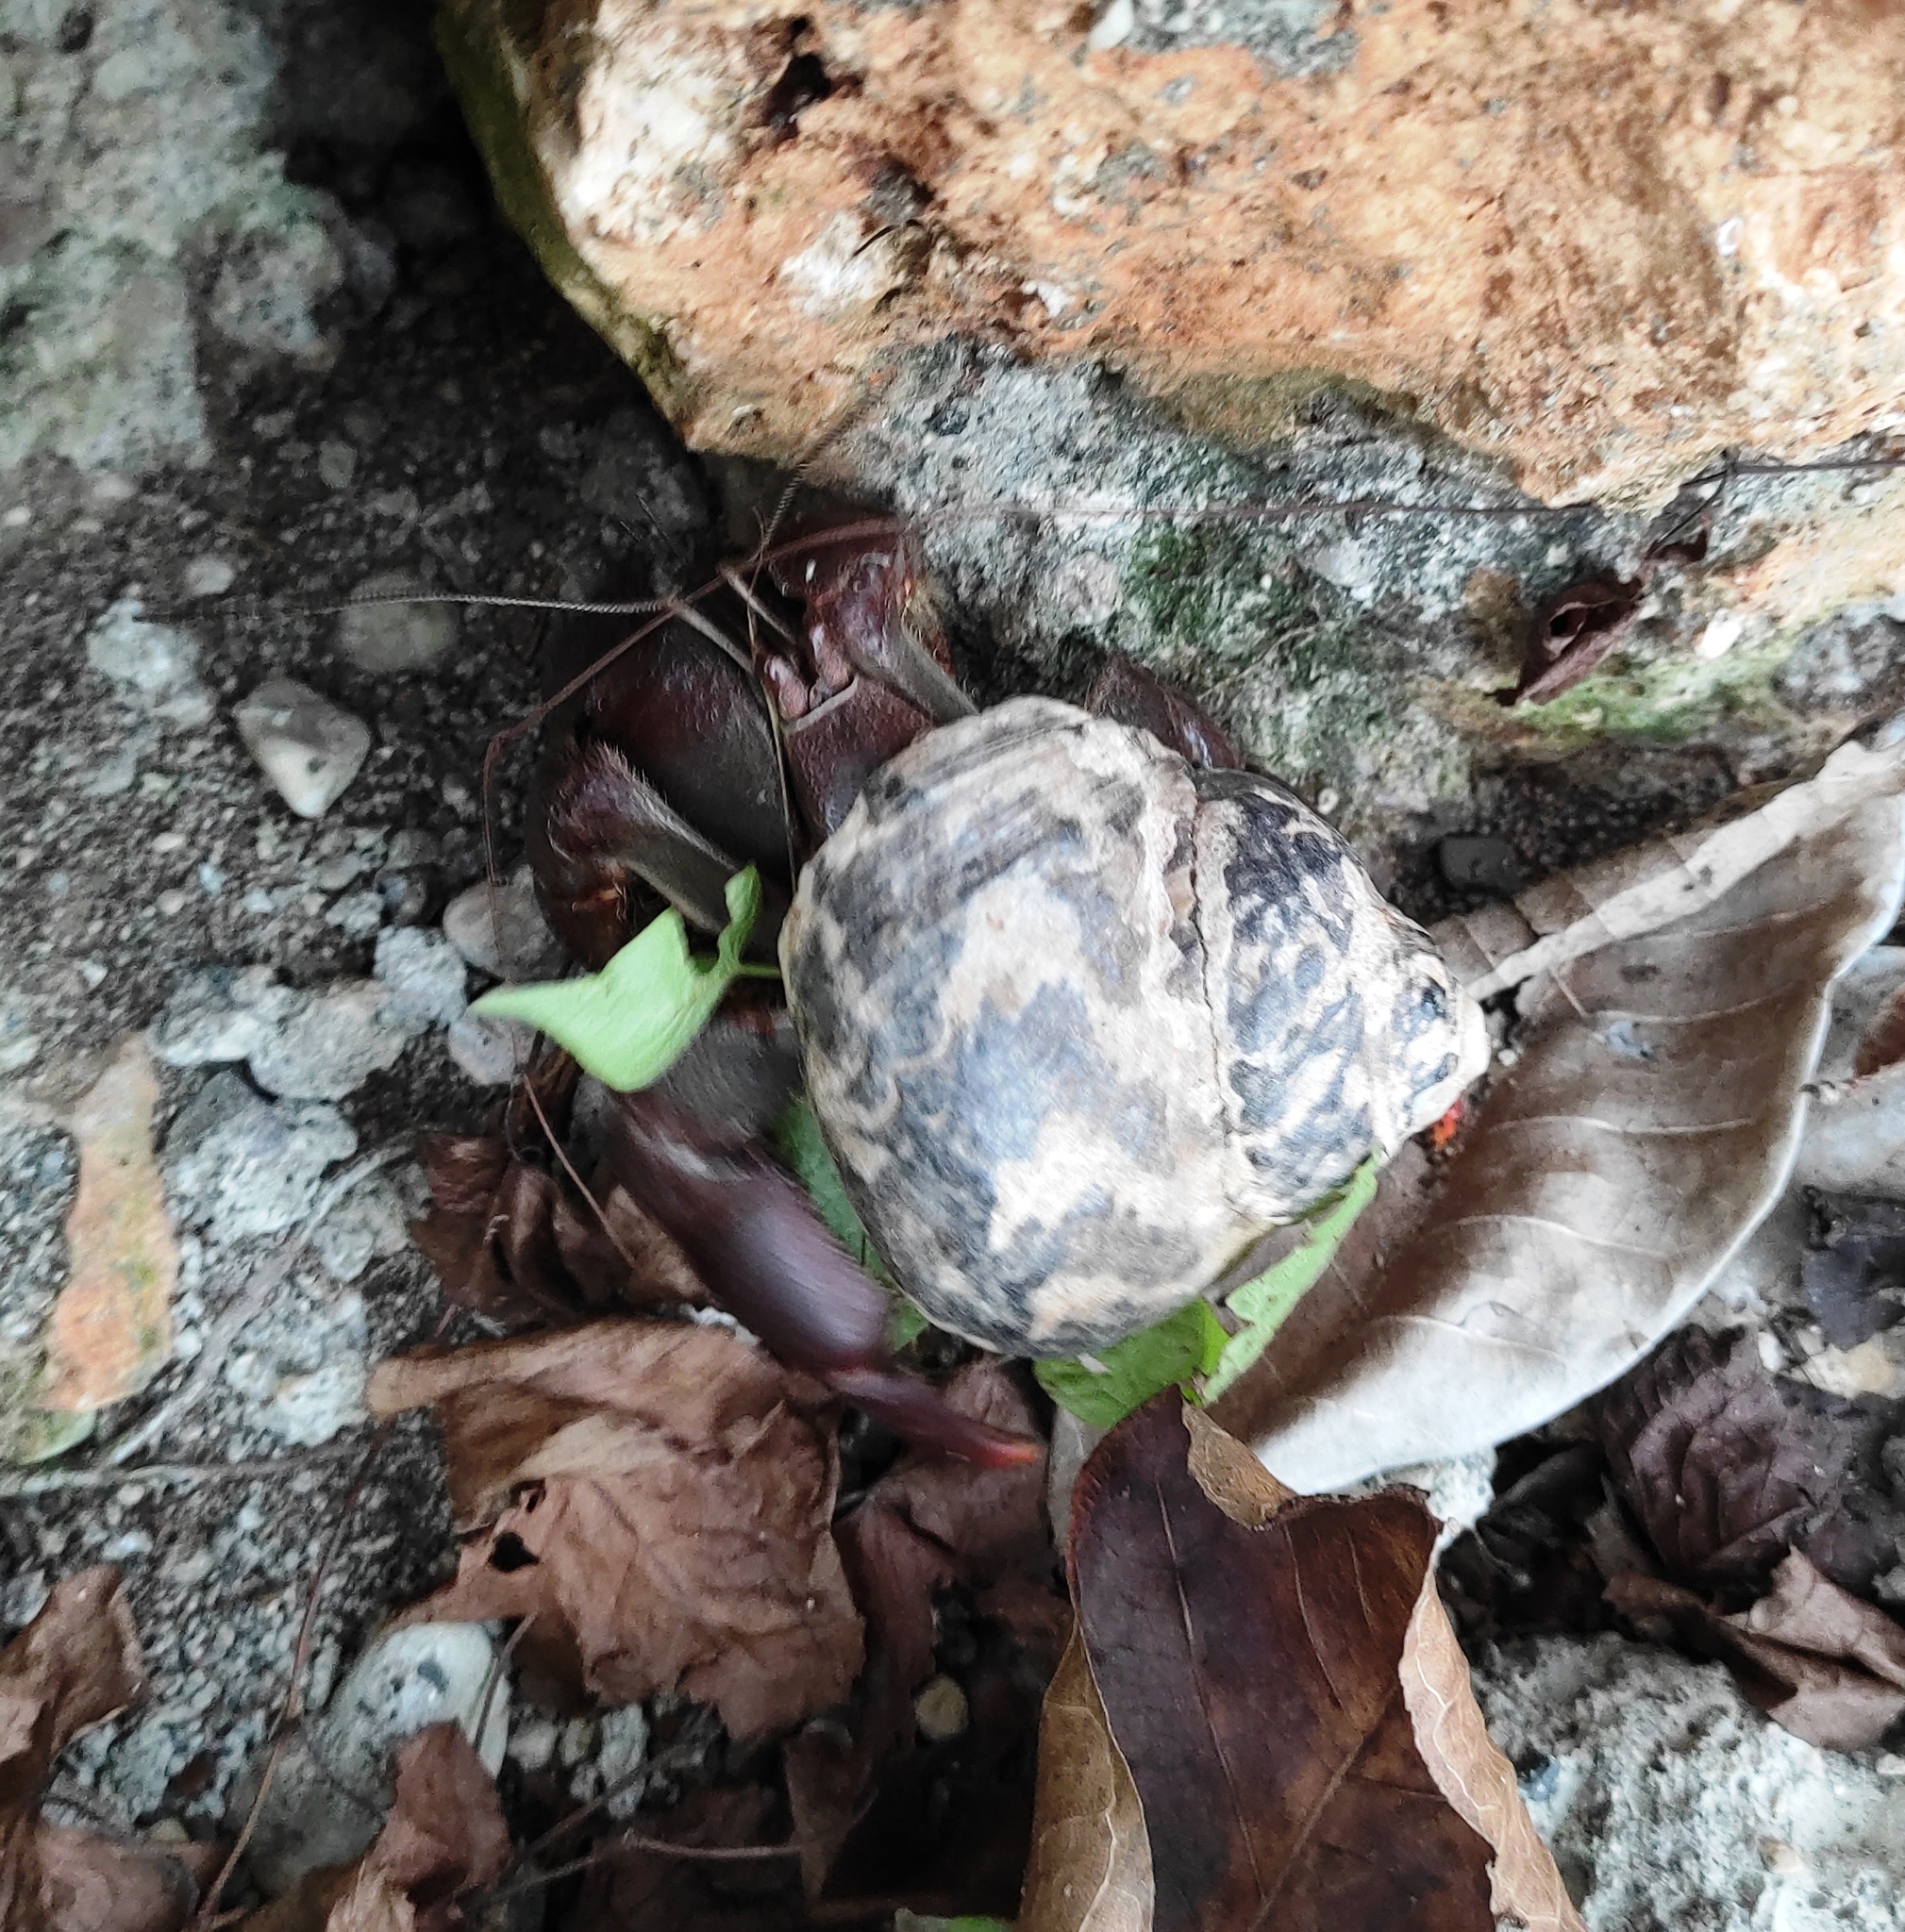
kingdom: Animalia
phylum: Arthropoda
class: Malacostraca
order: Decapoda
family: Coenobitidae
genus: Coenobita
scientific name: Coenobita clypeatus
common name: Caribbean hermit crab
